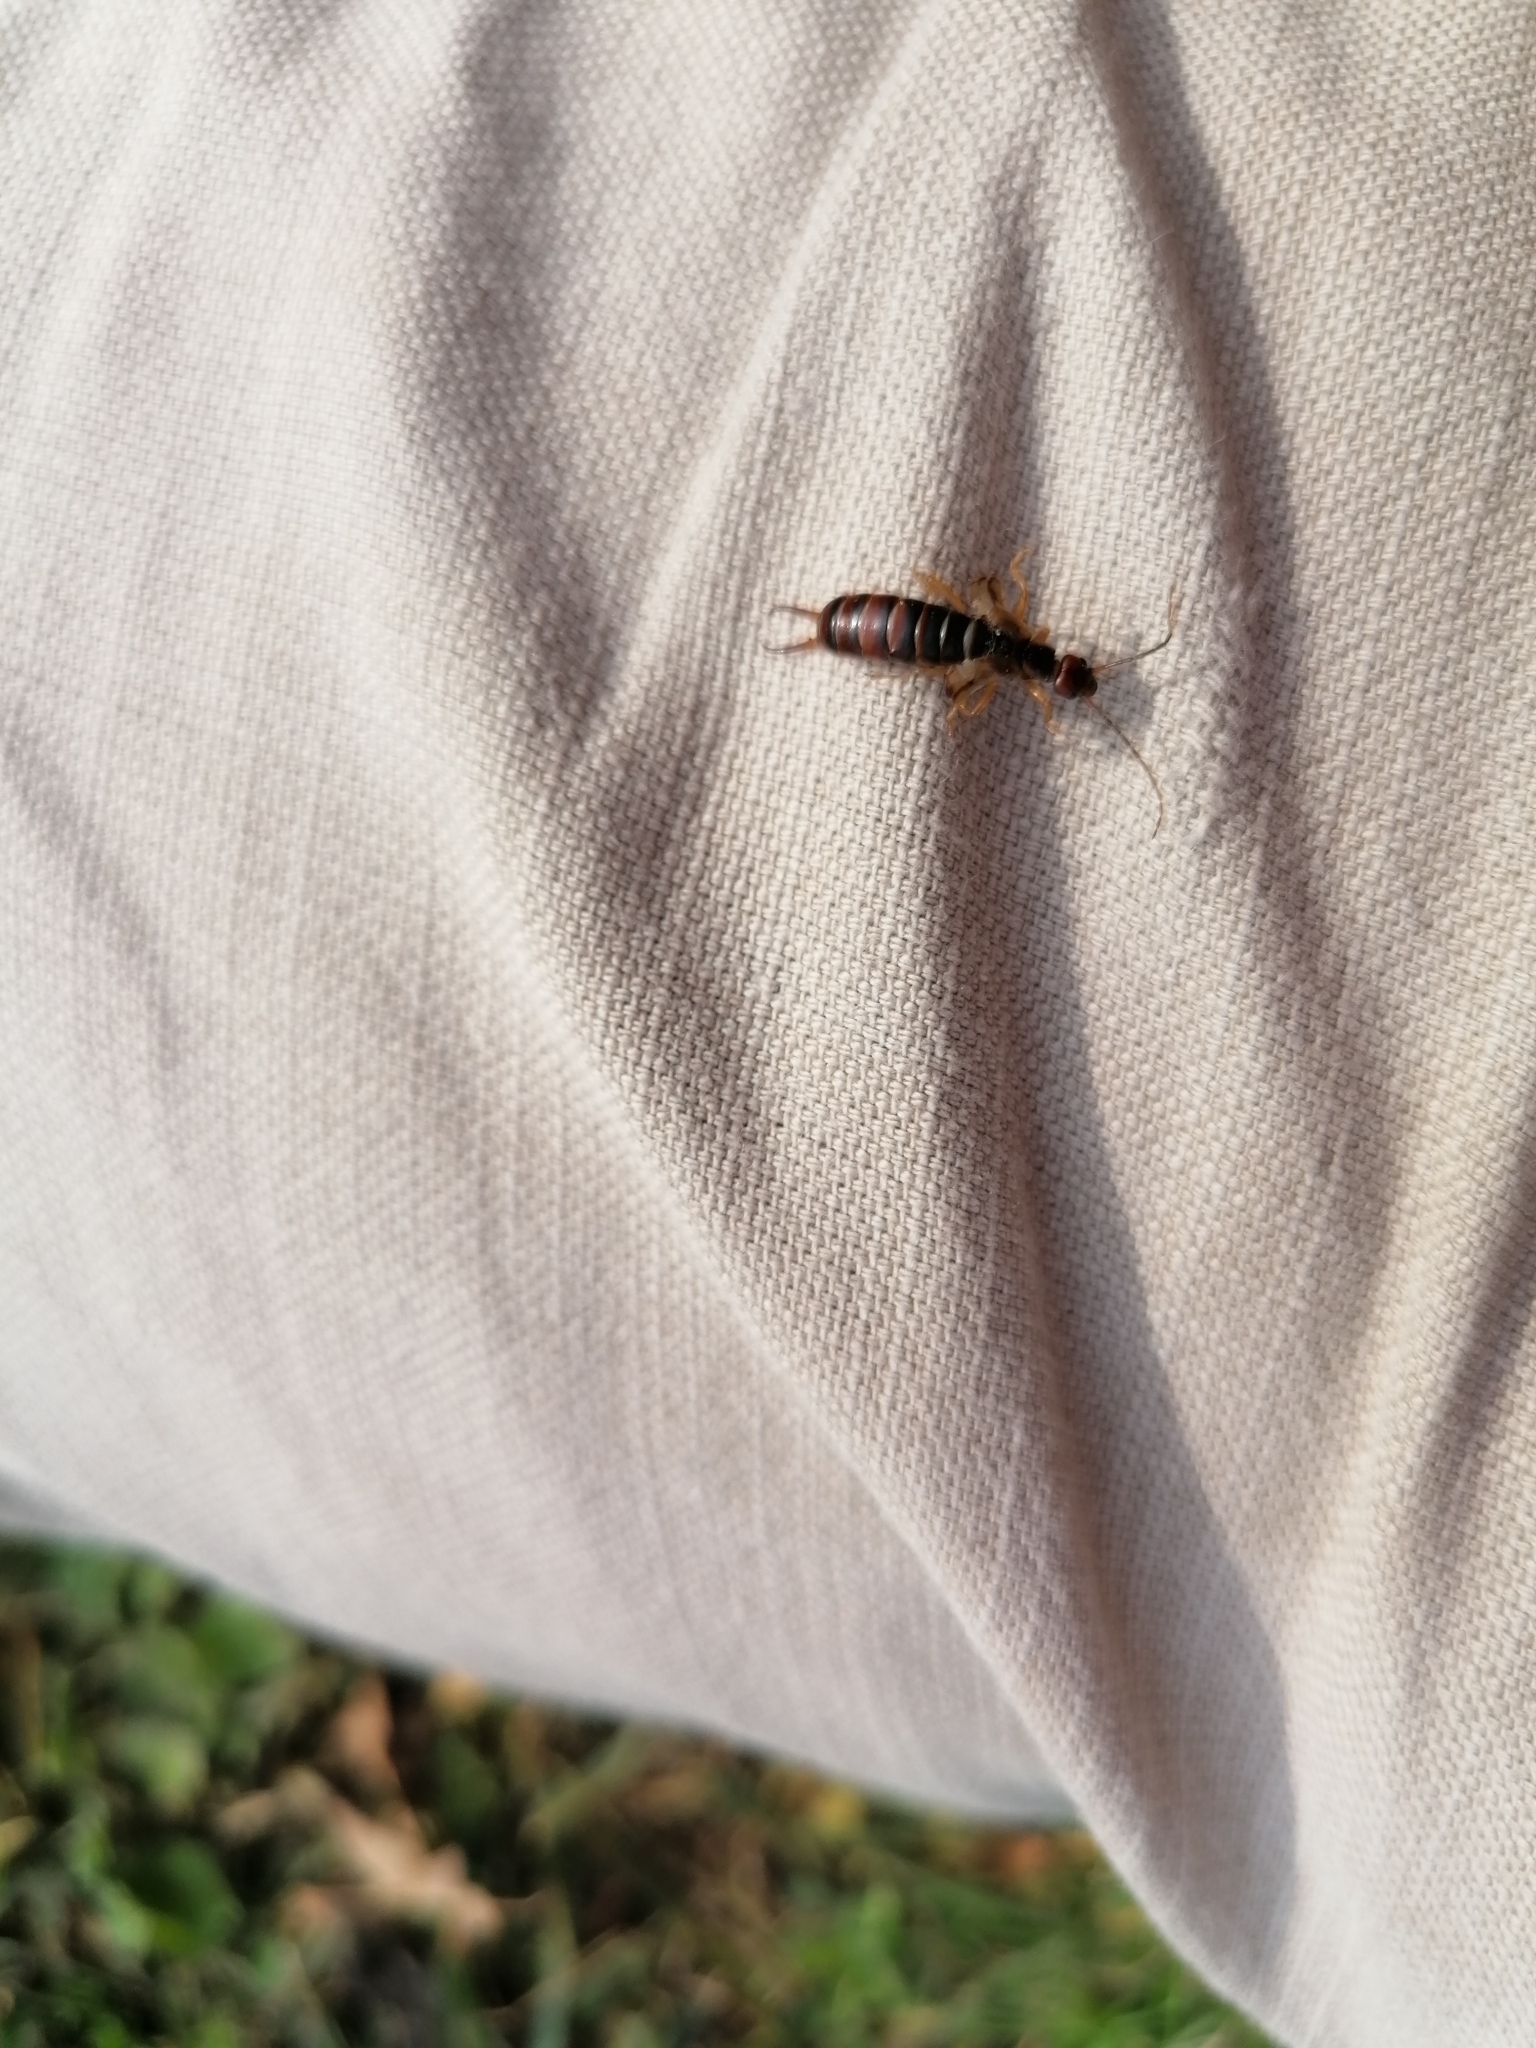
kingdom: Animalia
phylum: Arthropoda
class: Insecta
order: Dermaptera
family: Forficulidae
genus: Forficula
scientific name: Forficula
